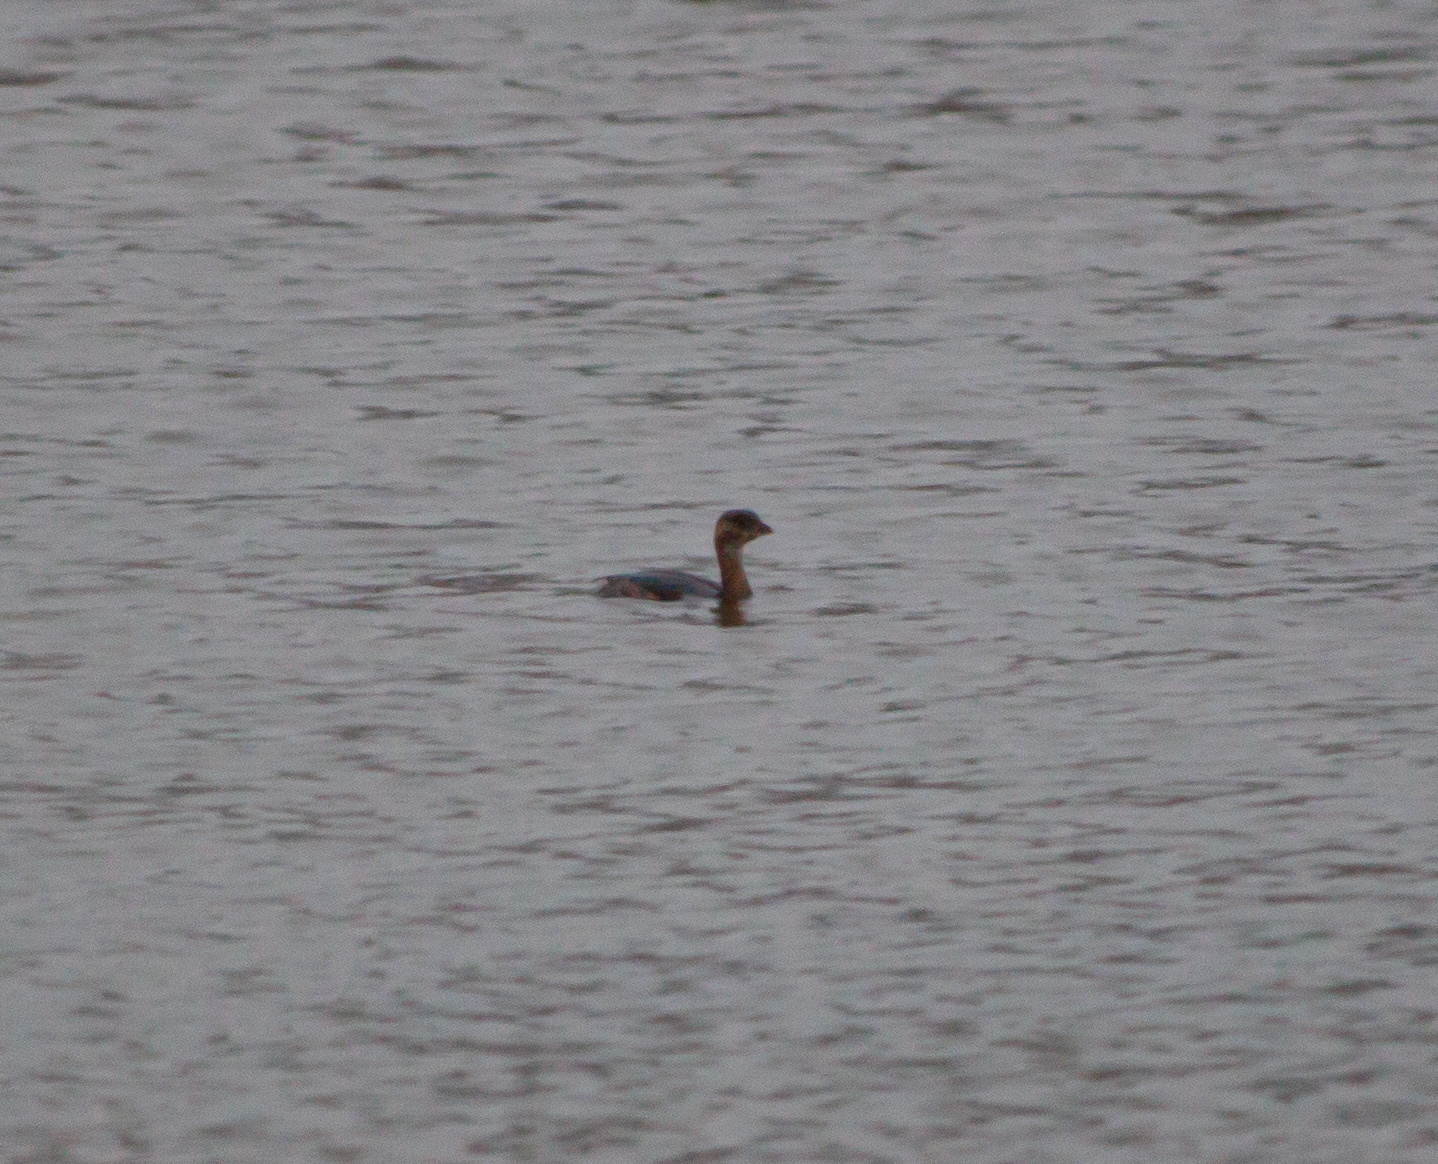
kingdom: Animalia
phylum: Chordata
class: Aves
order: Podicipediformes
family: Podicipedidae
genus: Podilymbus
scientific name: Podilymbus podiceps
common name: Pied-billed grebe
